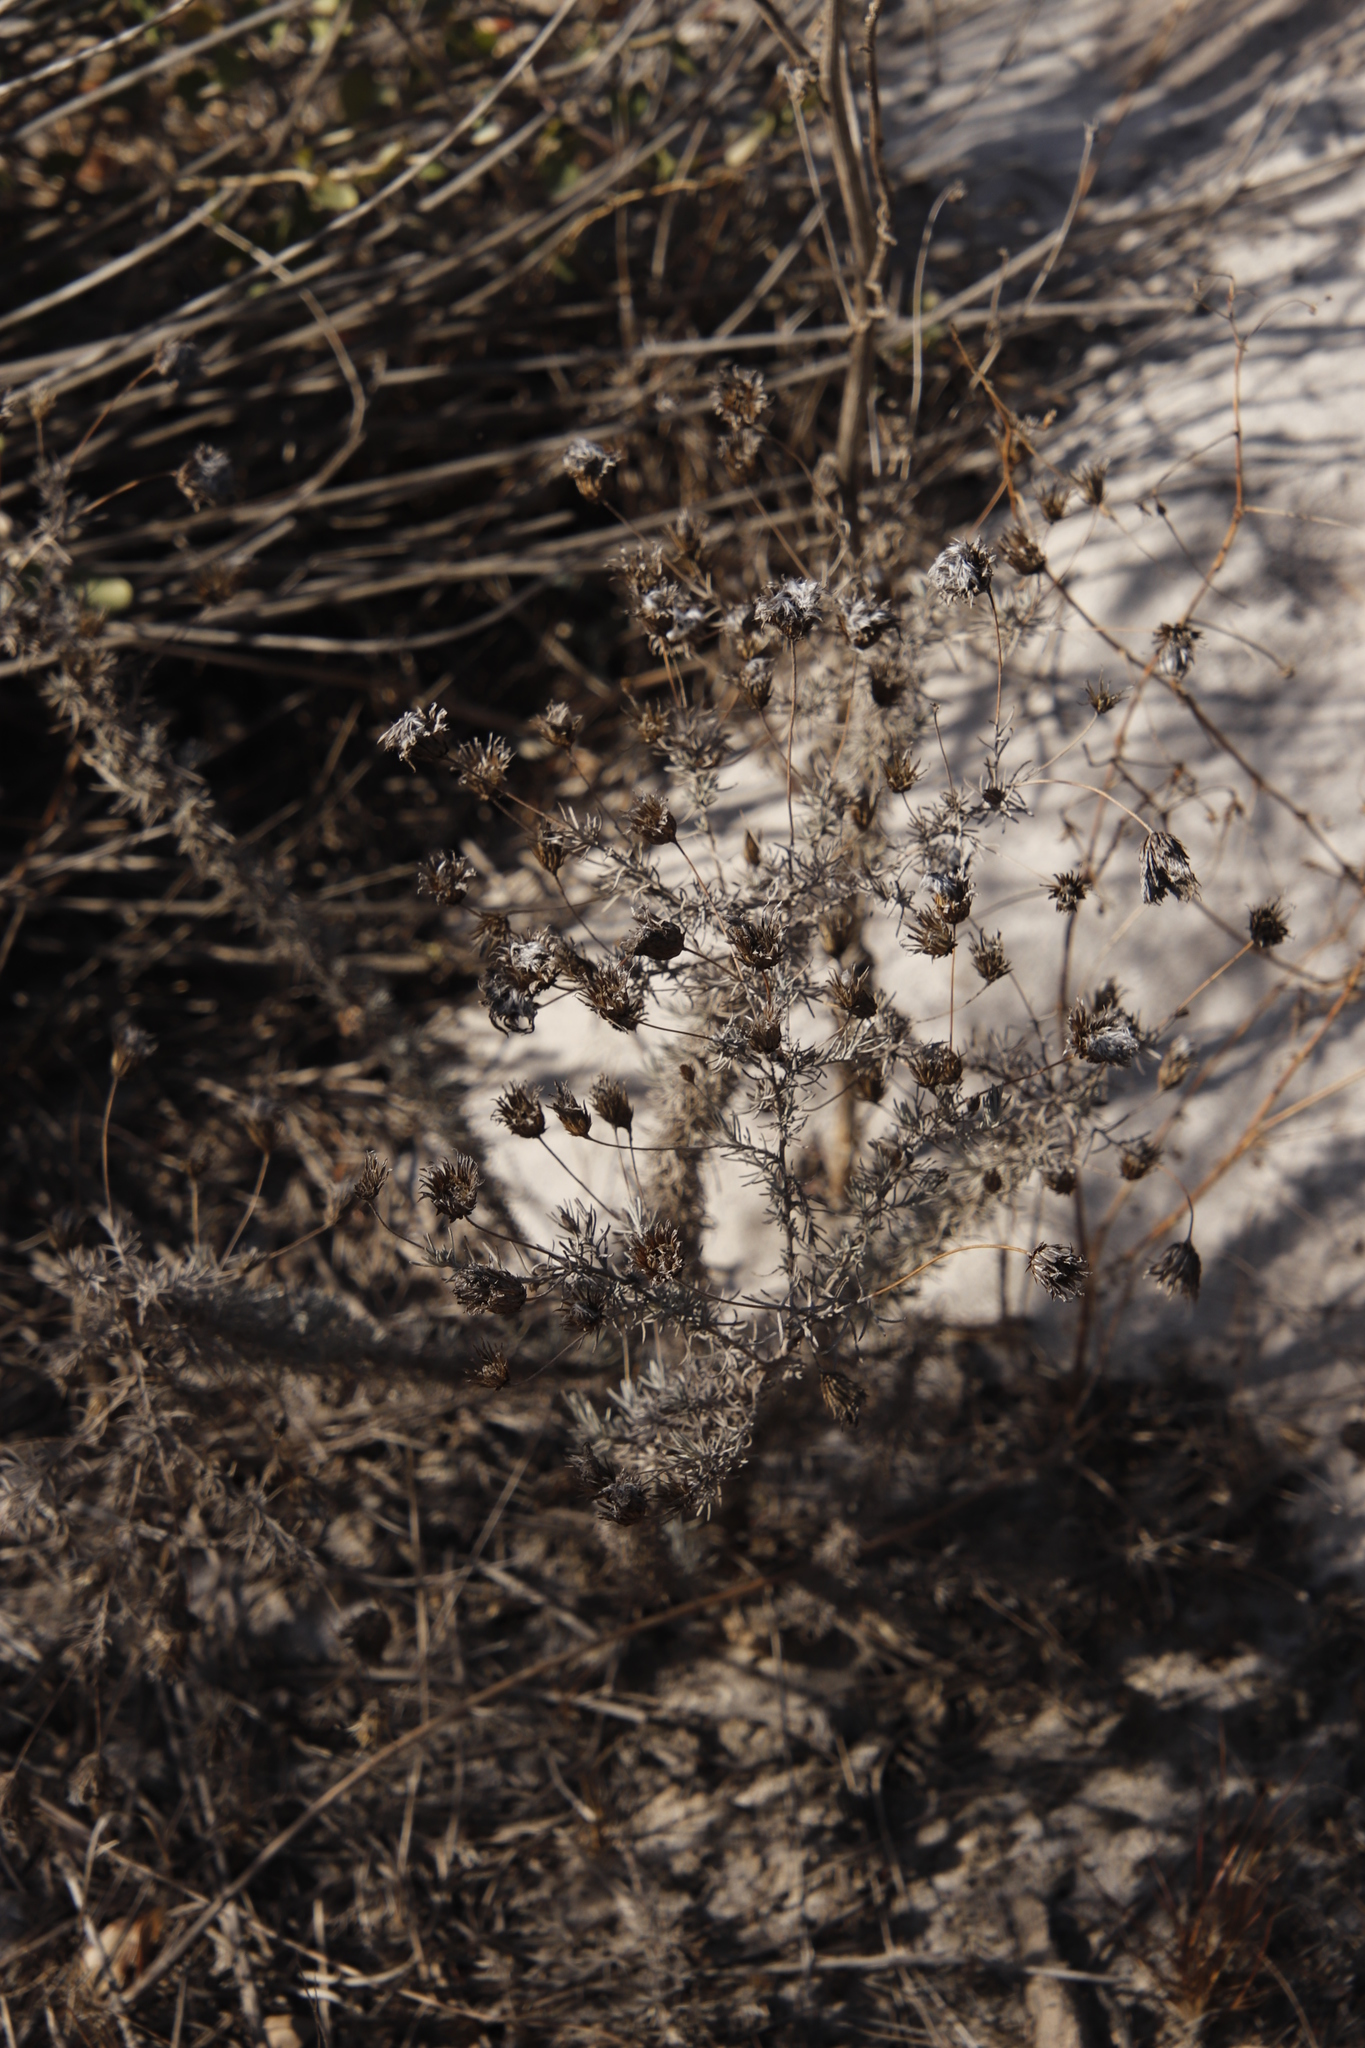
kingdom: Plantae
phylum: Tracheophyta
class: Magnoliopsida
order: Asterales
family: Asteraceae
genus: Leysera
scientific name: Leysera gnaphalodes
